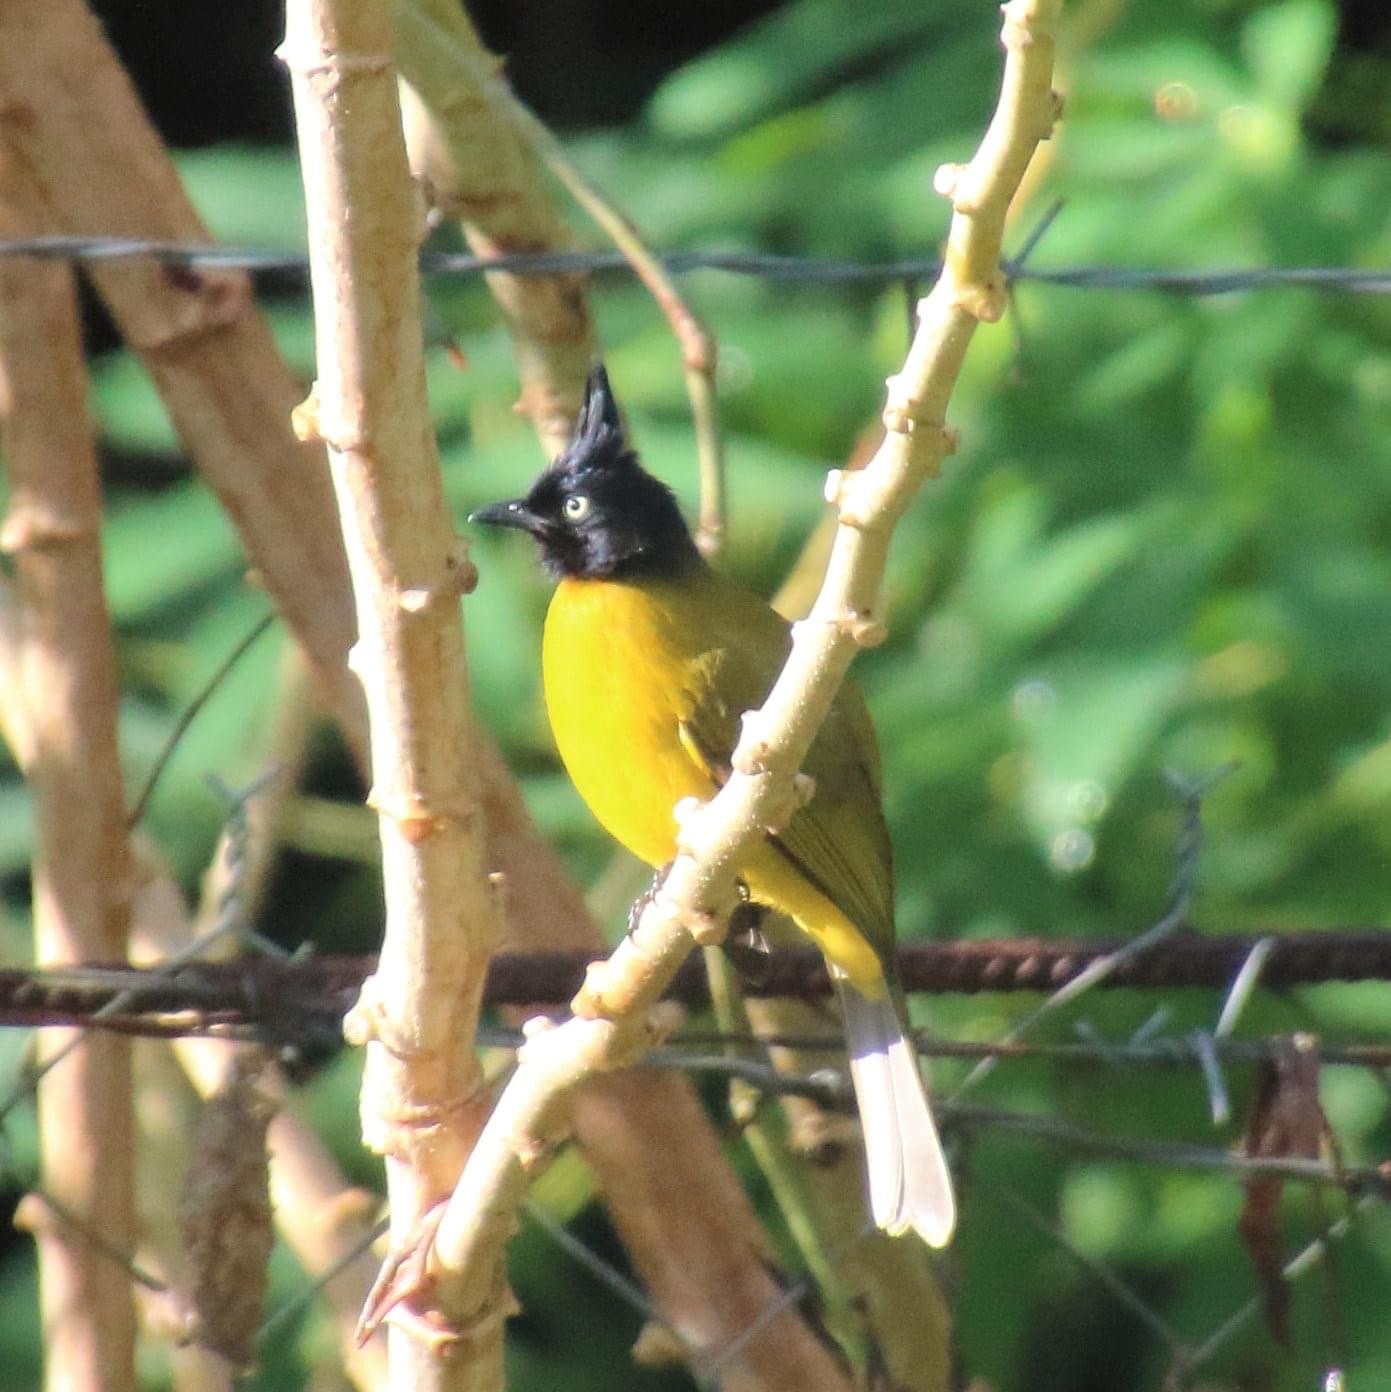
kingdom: Animalia
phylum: Chordata
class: Aves
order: Passeriformes
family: Pycnonotidae
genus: Pycnonotus
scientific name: Pycnonotus flaviventris
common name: Black-crested bulbul
